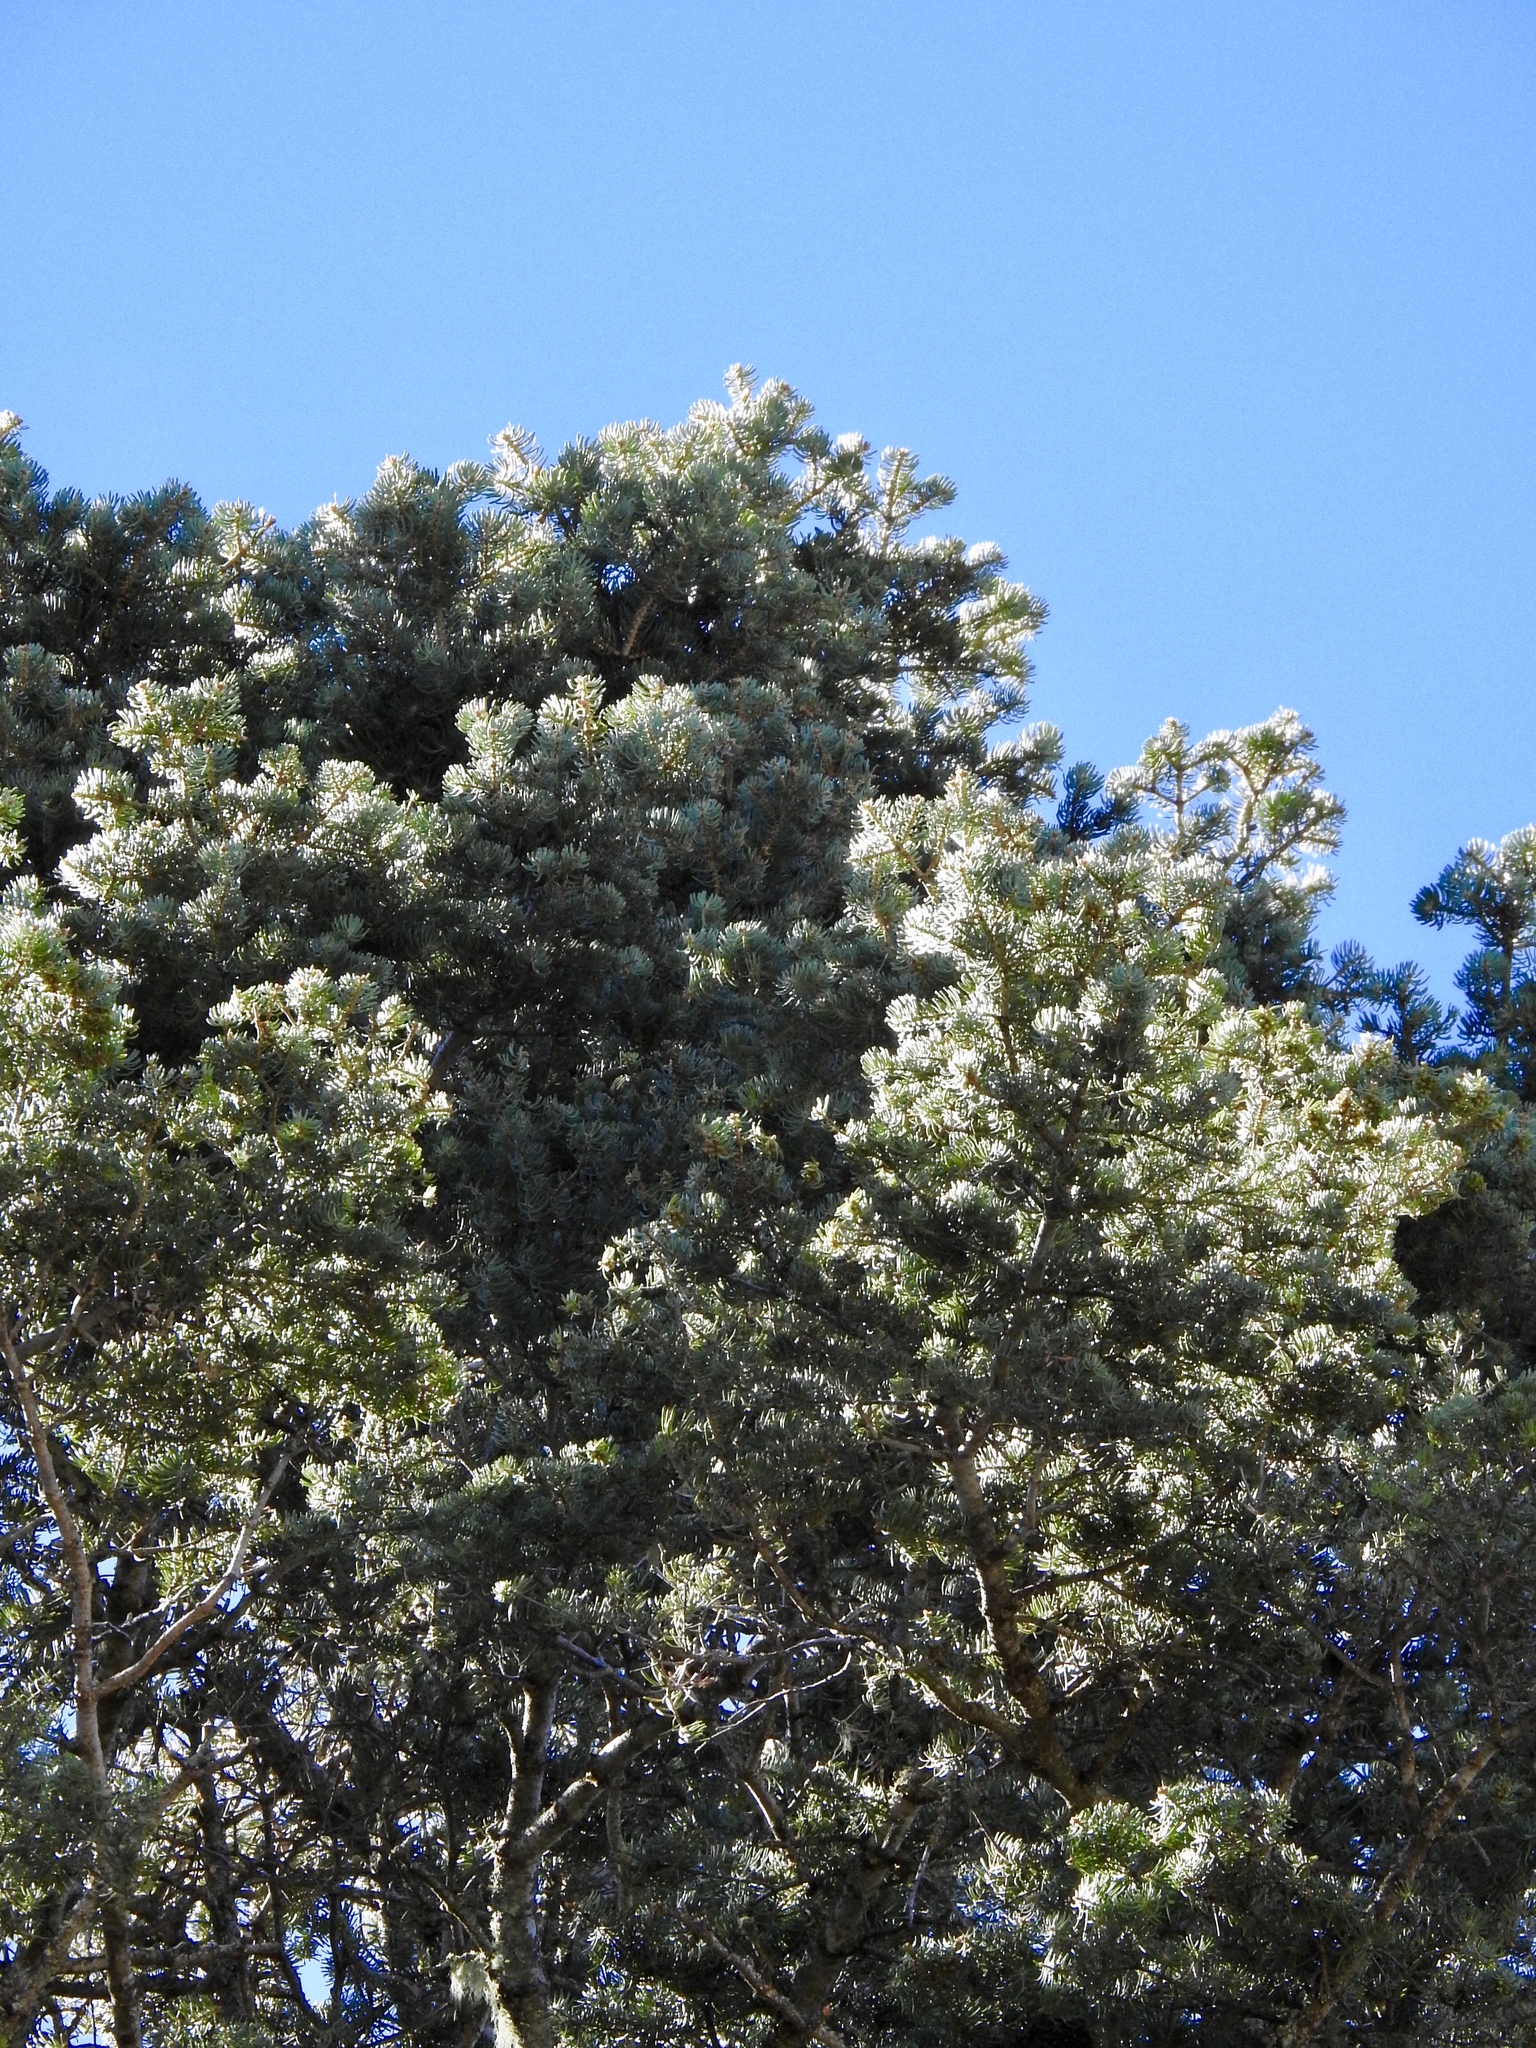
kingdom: Plantae
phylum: Tracheophyta
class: Pinopsida
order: Pinales
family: Pinaceae
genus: Pseudotsuga
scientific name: Pseudotsuga menziesii
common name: Douglas fir
